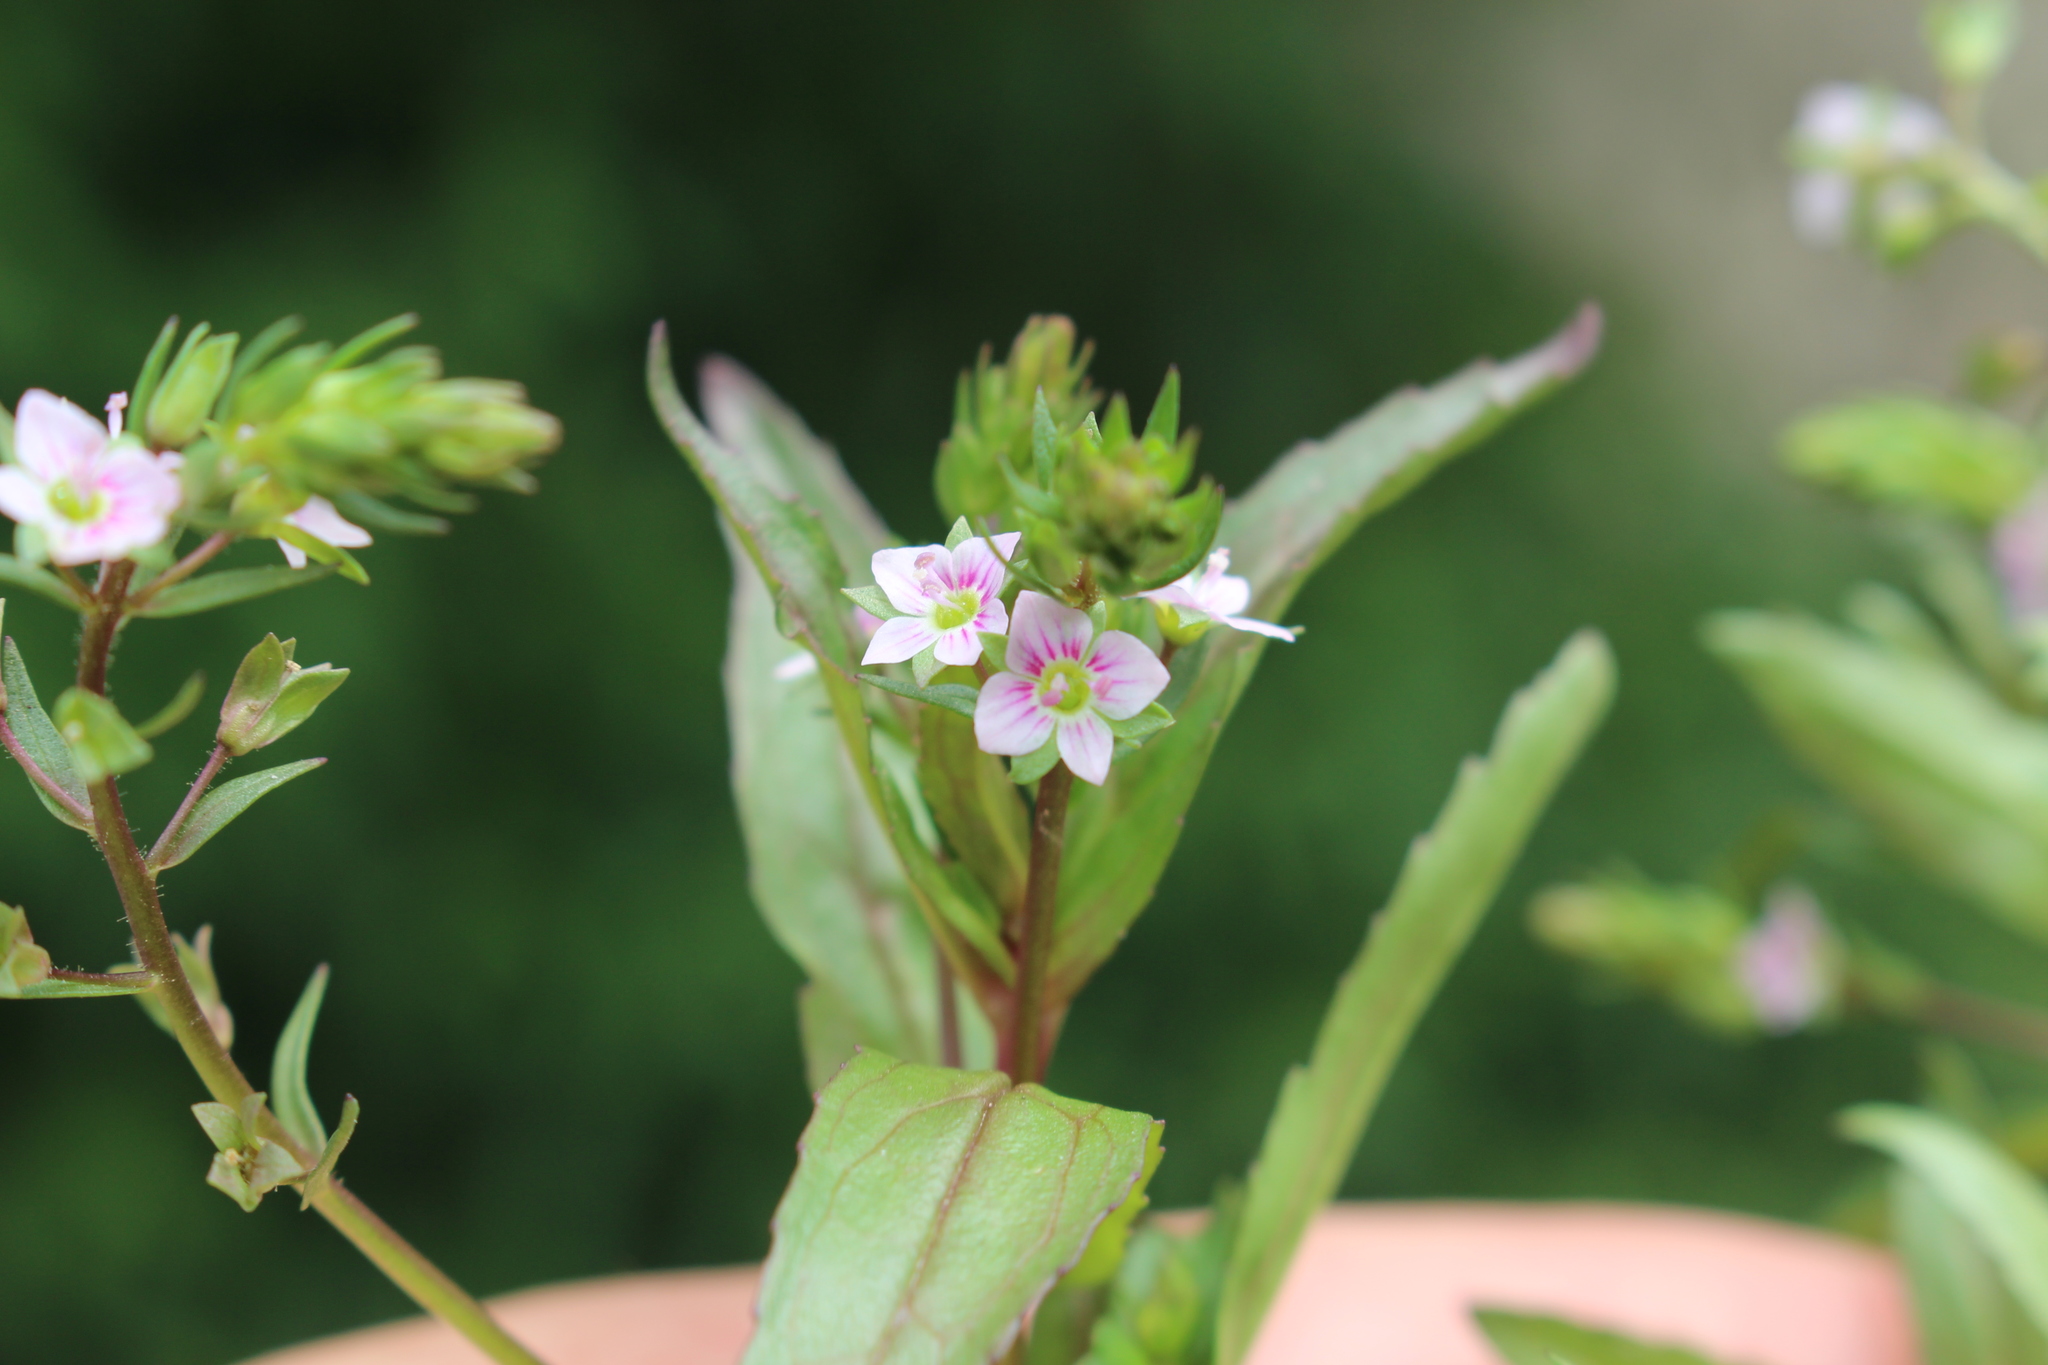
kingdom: Plantae
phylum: Tracheophyta
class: Magnoliopsida
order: Lamiales
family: Plantaginaceae
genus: Veronica
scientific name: Veronica catenata
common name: Pink water-speedwell
